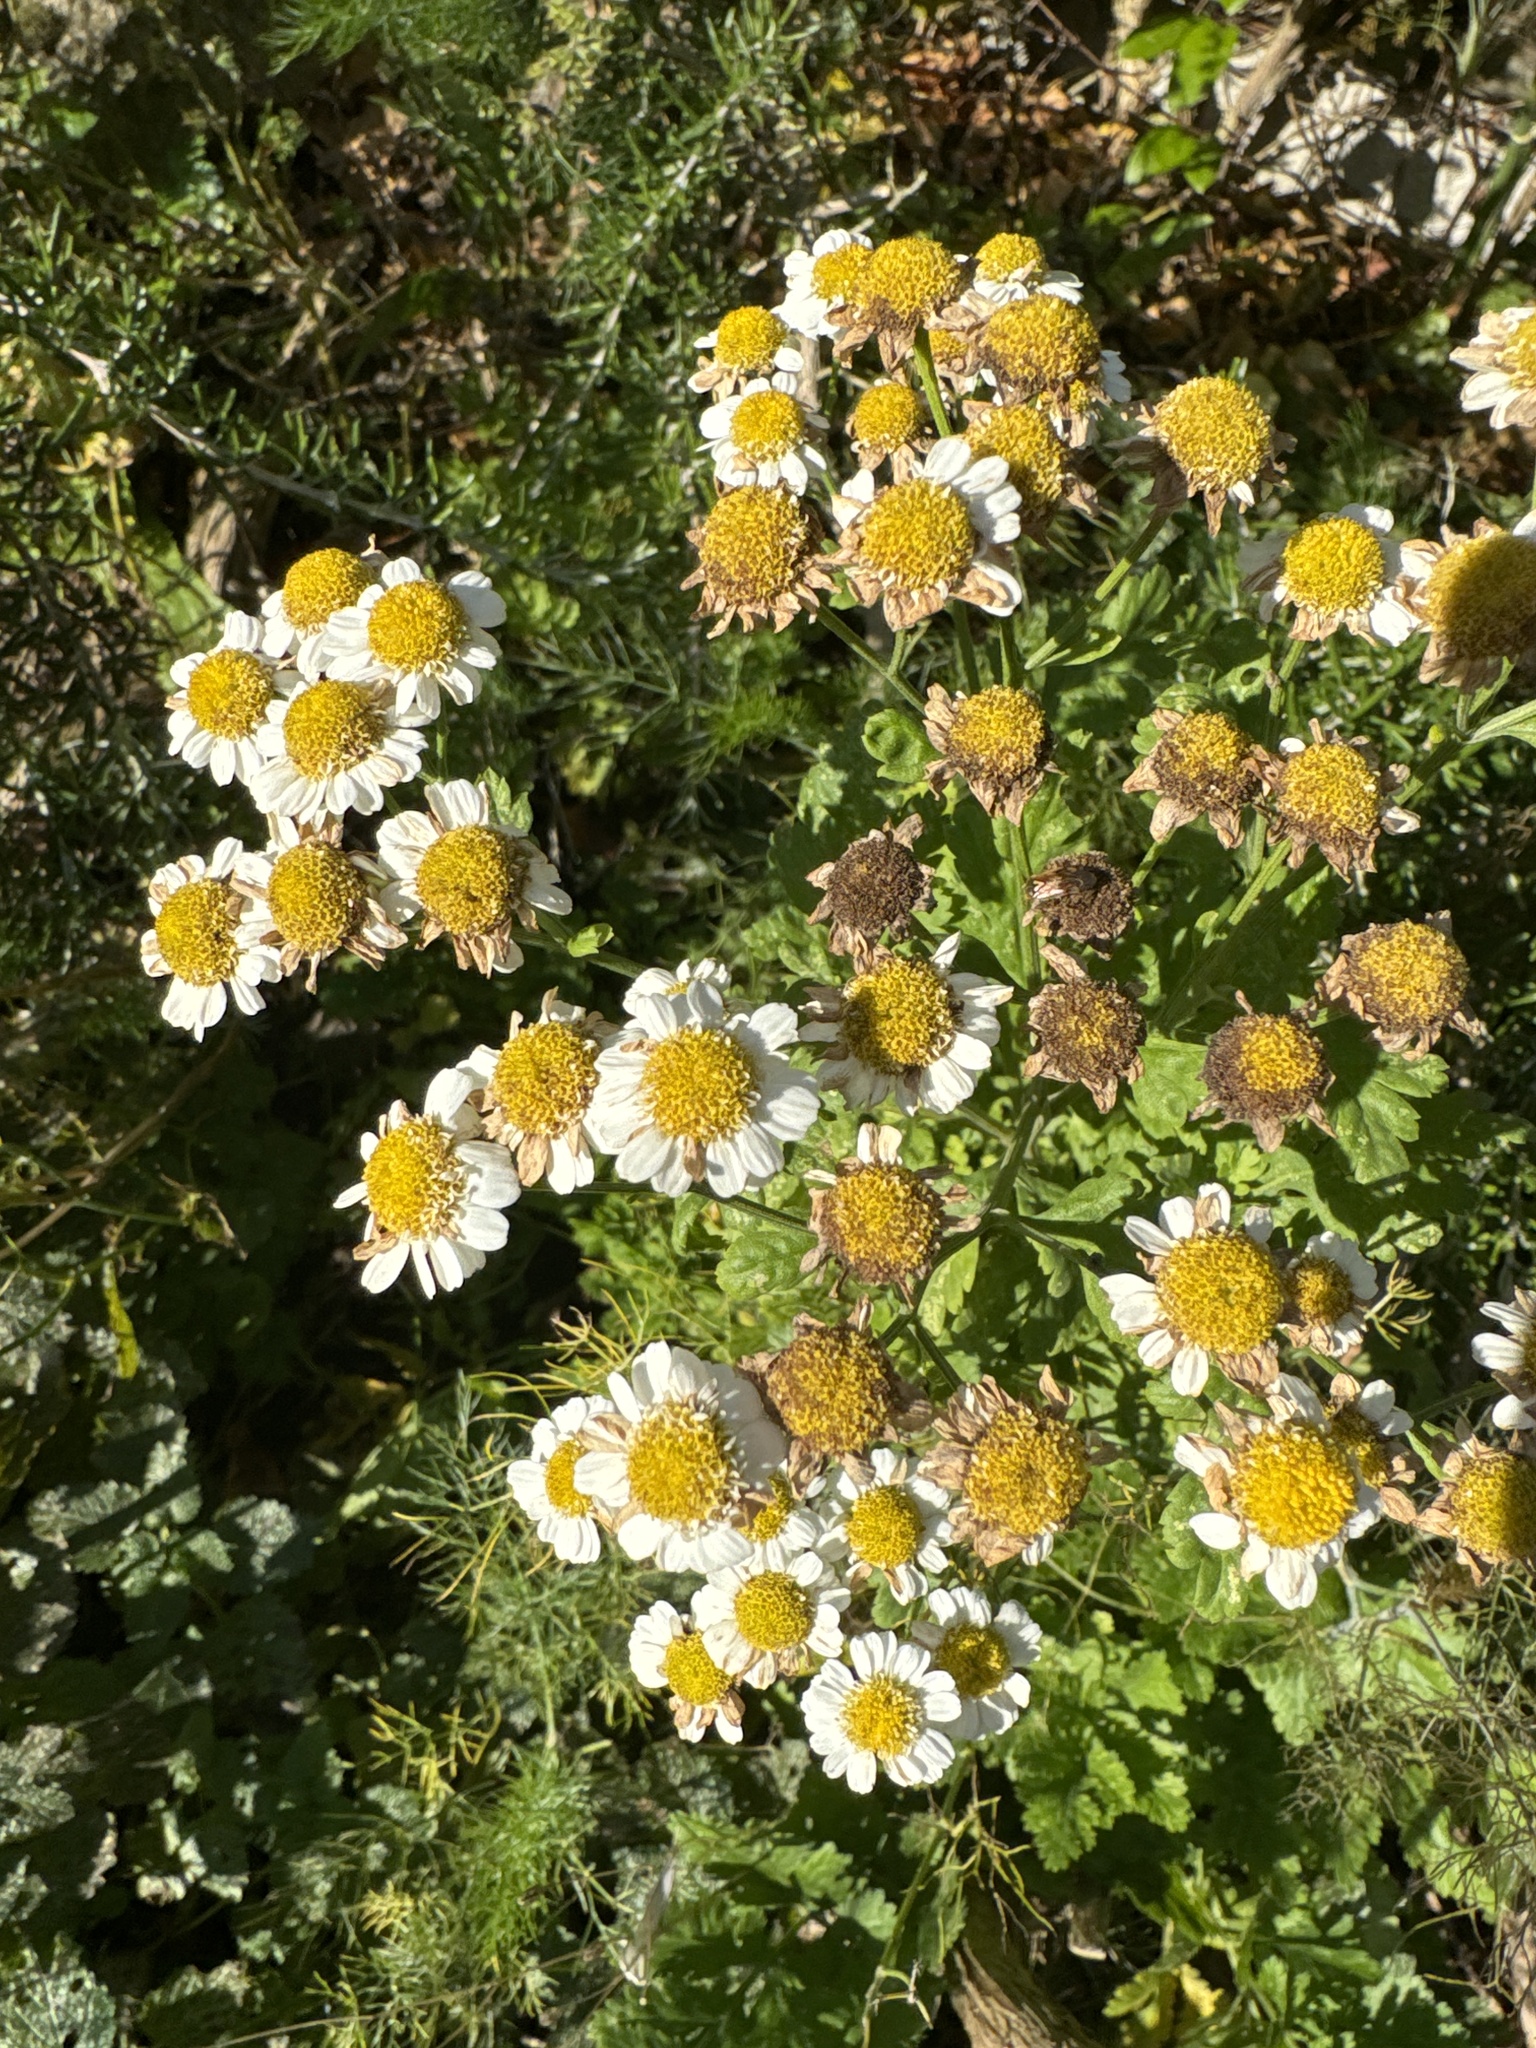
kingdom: Plantae
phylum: Tracheophyta
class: Magnoliopsida
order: Asterales
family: Asteraceae
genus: Tanacetum
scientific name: Tanacetum parthenium
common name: Feverfew
